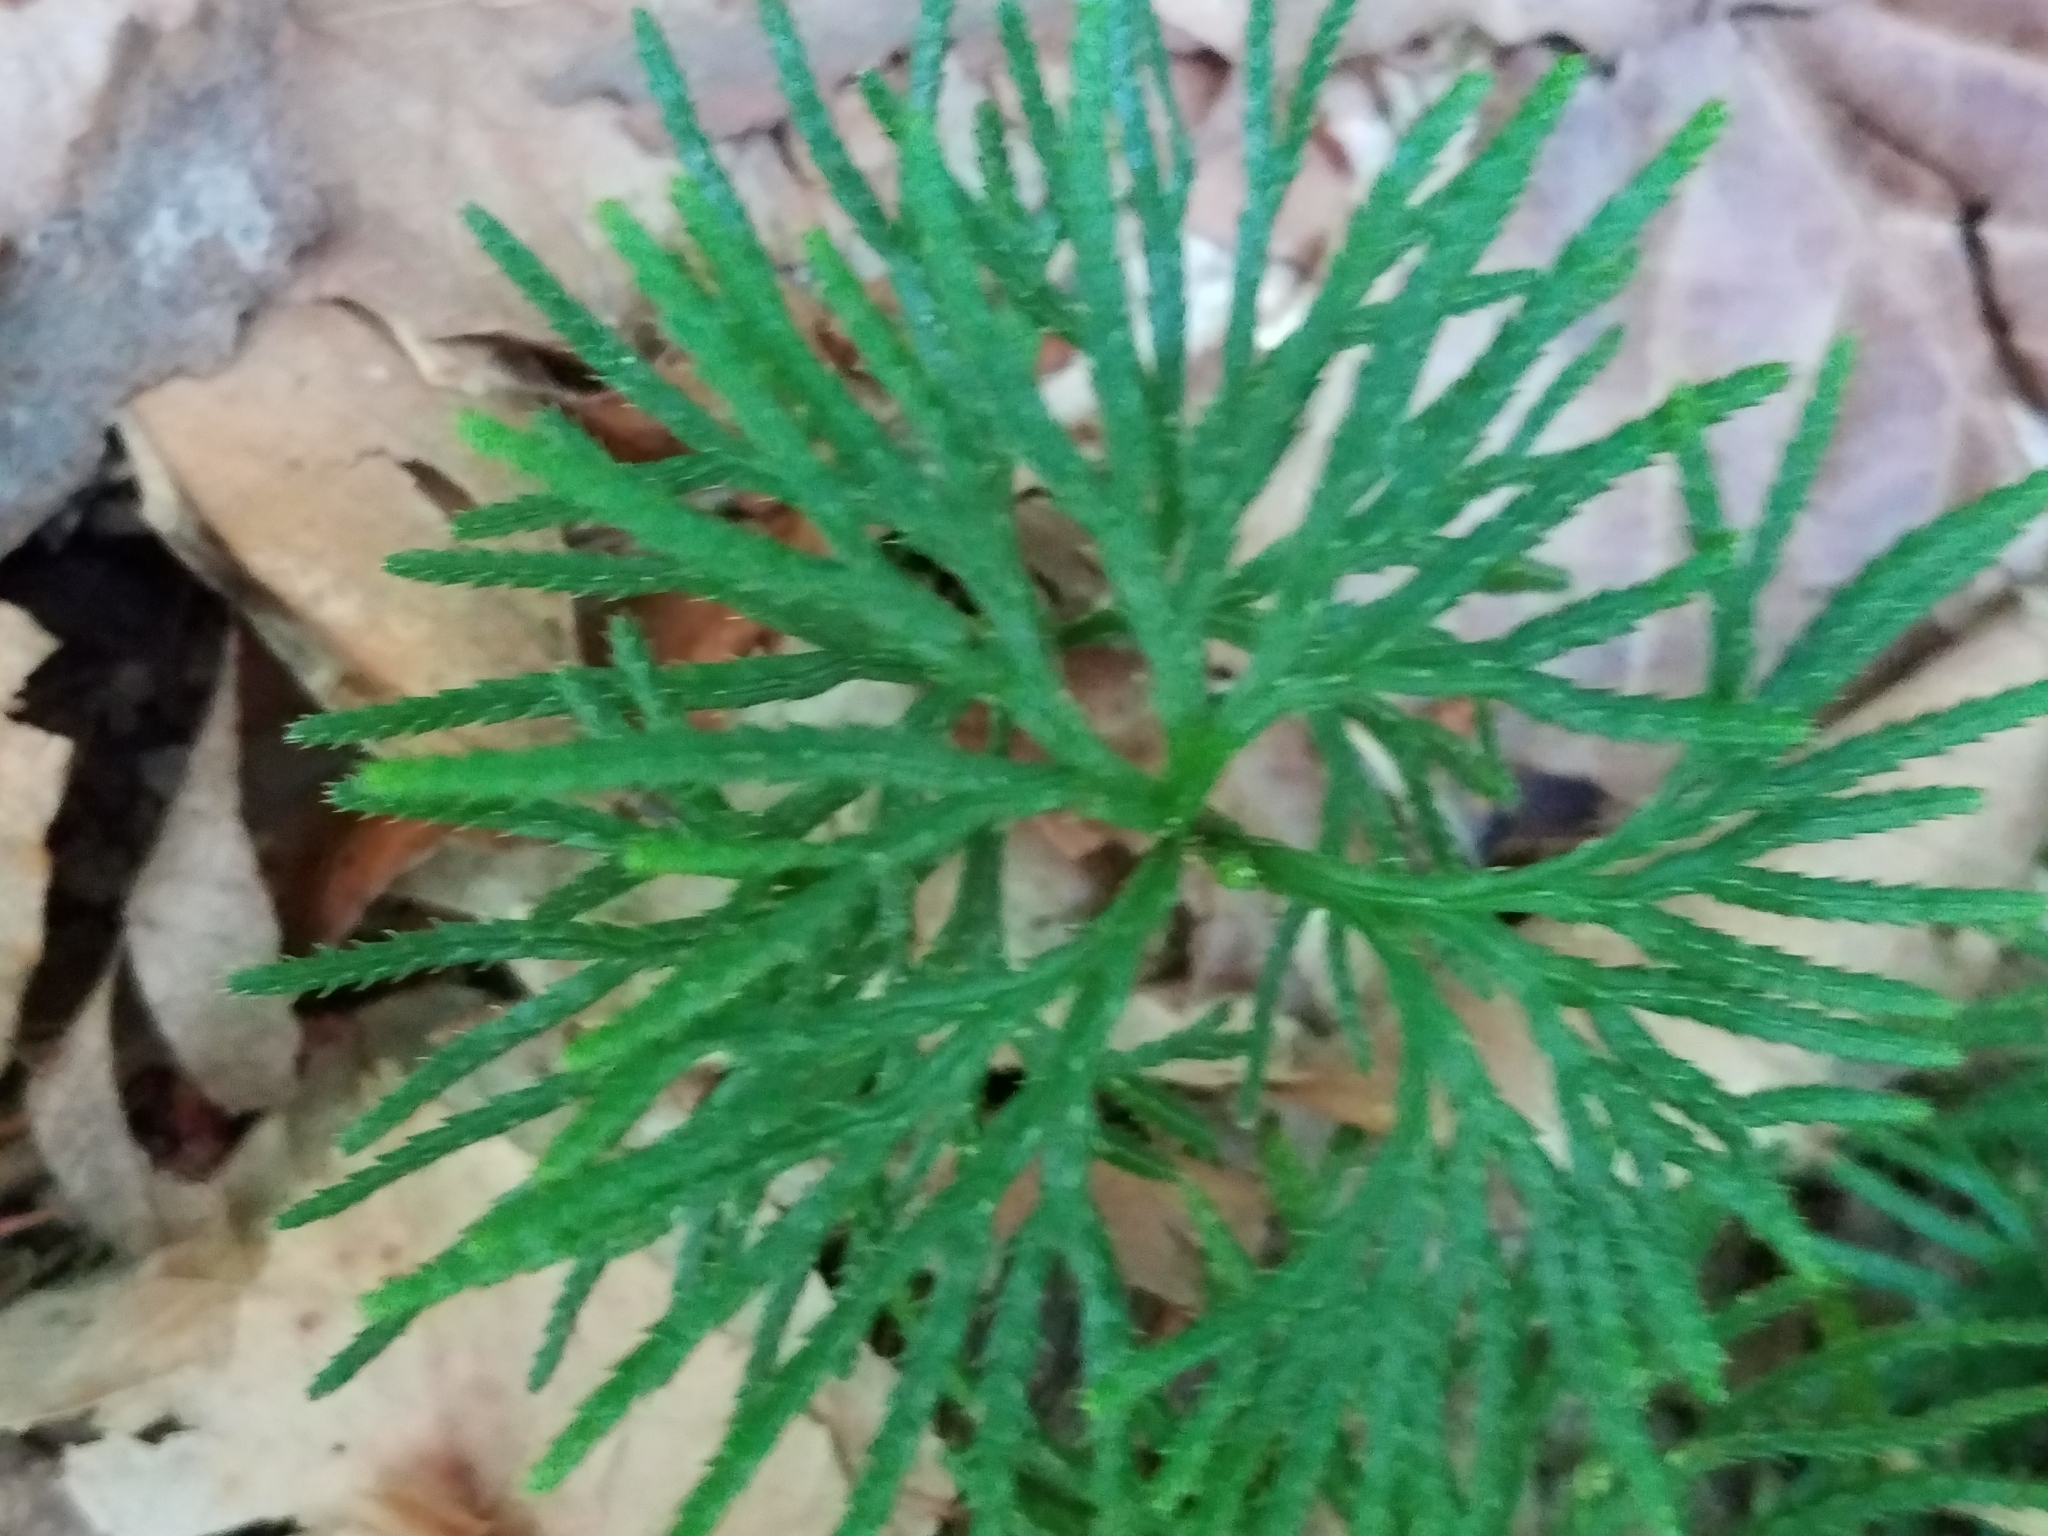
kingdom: Plantae
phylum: Tracheophyta
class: Lycopodiopsida
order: Lycopodiales
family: Lycopodiaceae
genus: Diphasiastrum
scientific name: Diphasiastrum digitatum
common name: Southern running-pine
